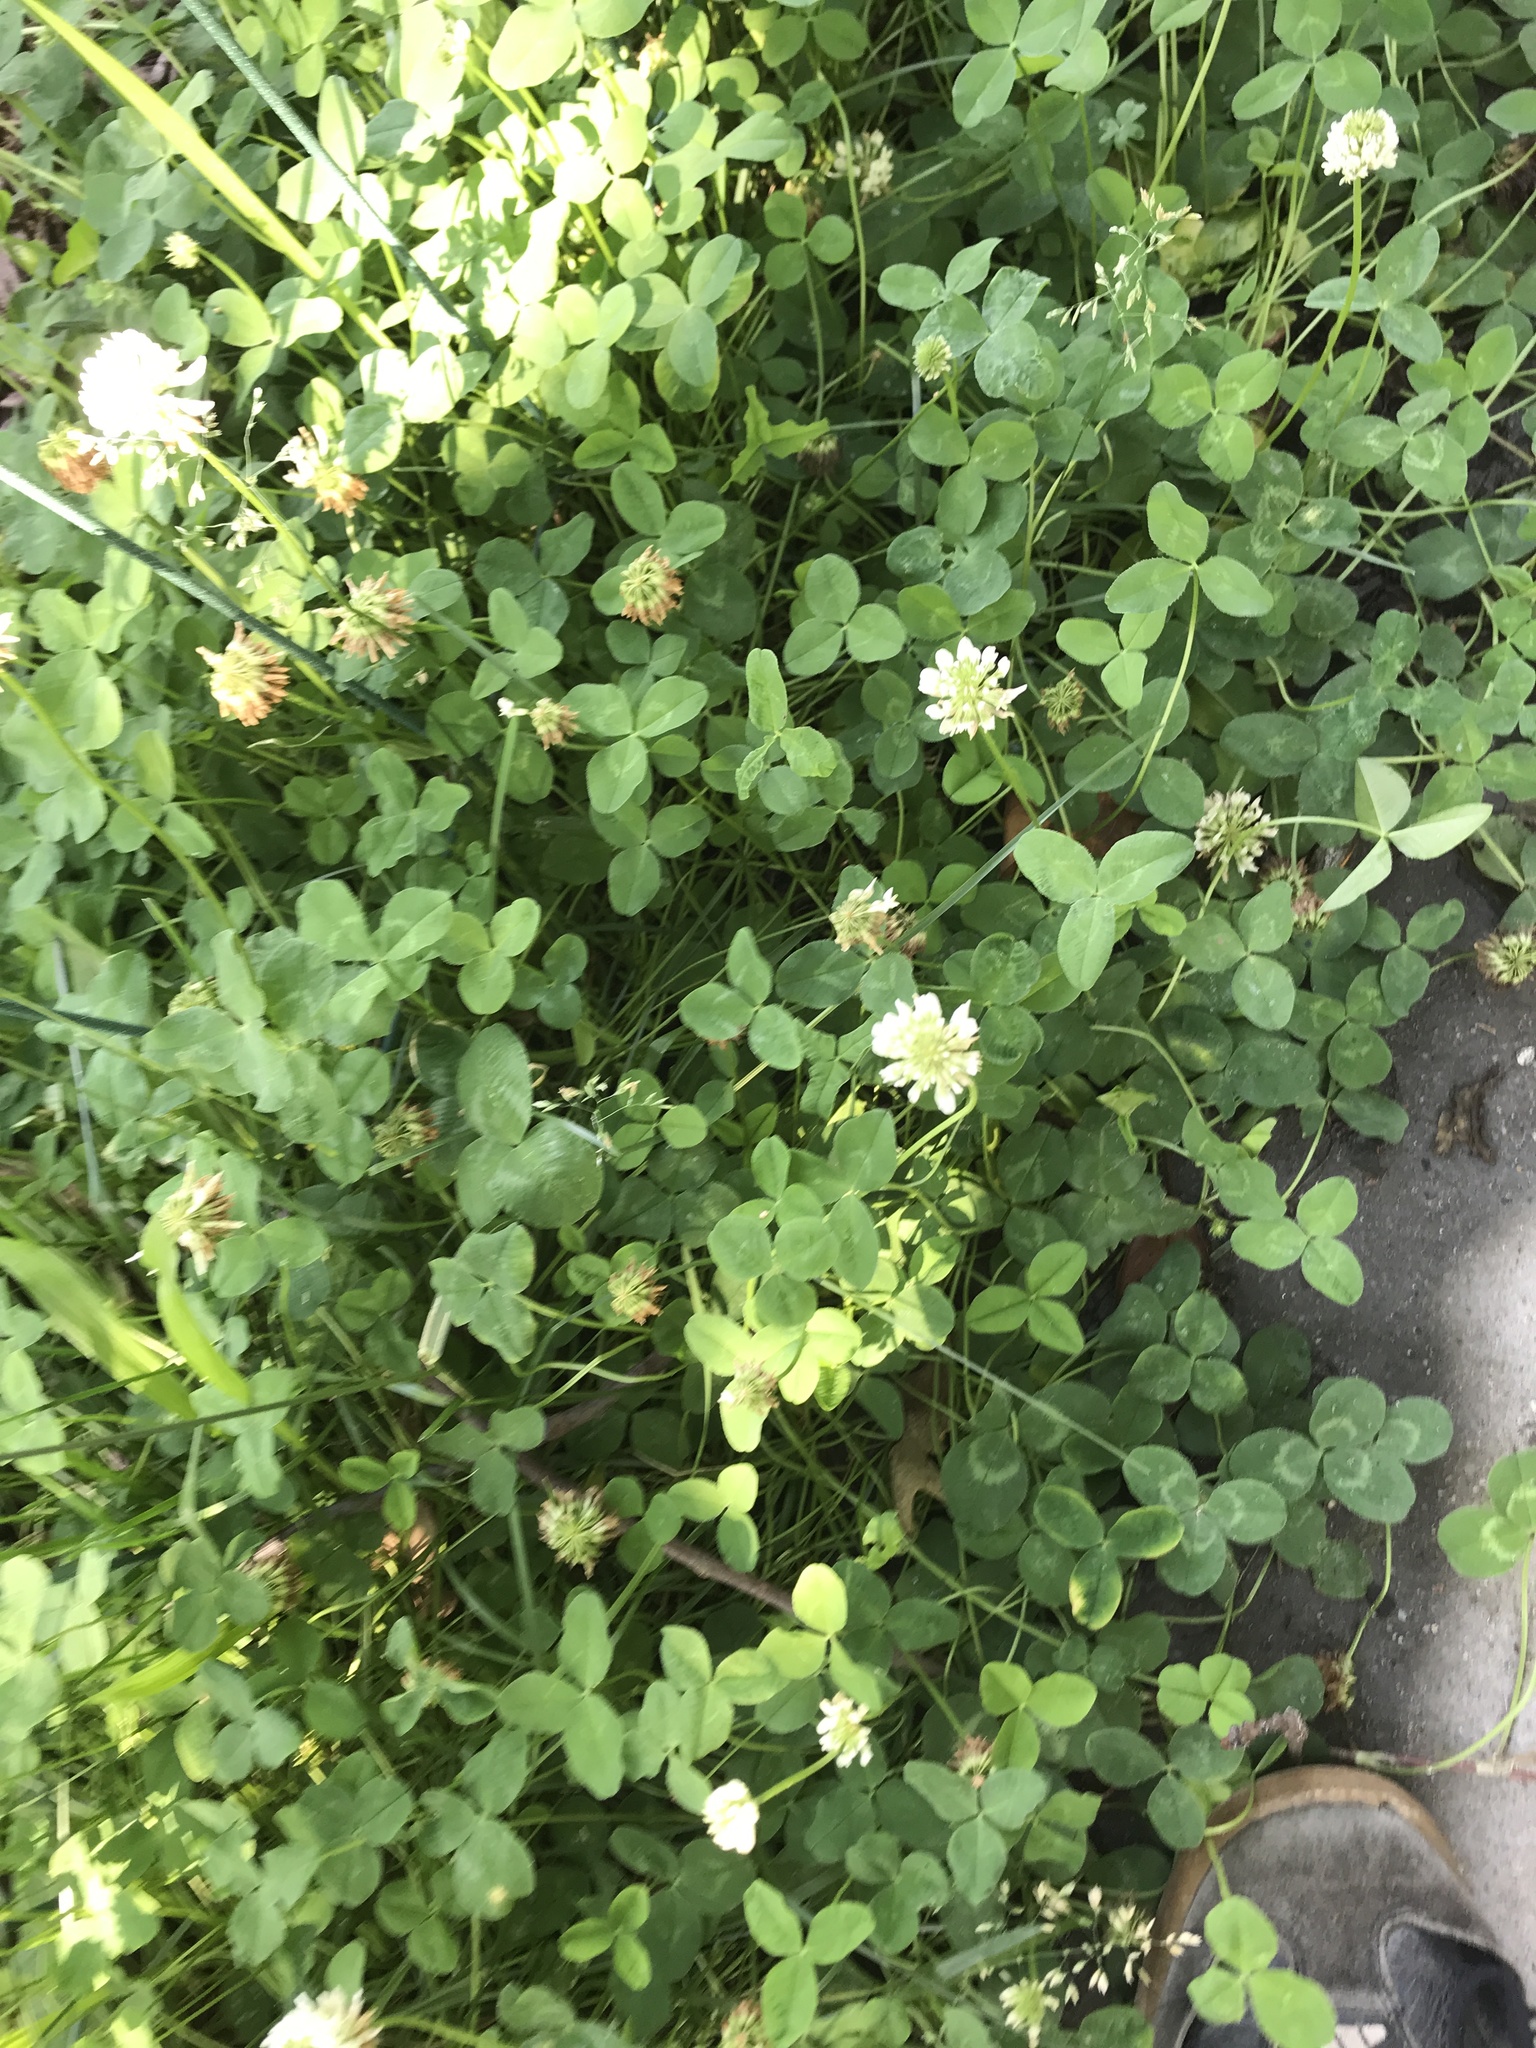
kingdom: Plantae
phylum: Tracheophyta
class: Magnoliopsida
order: Fabales
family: Fabaceae
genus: Trifolium
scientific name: Trifolium repens
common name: White clover
